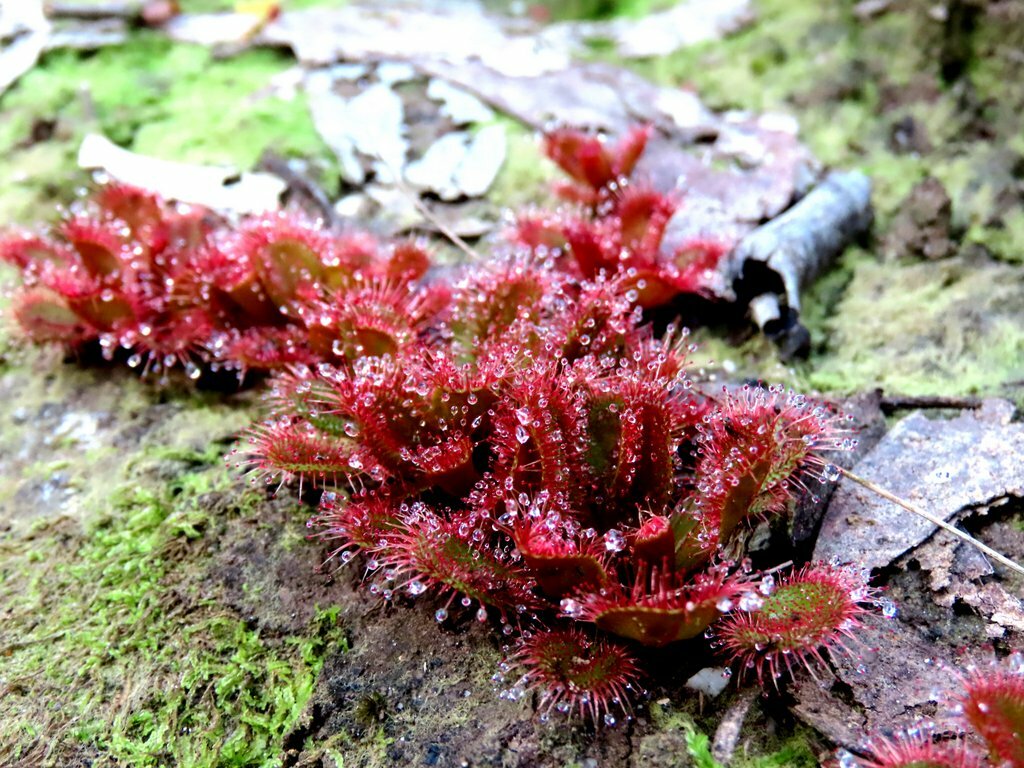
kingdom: Plantae
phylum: Tracheophyta
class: Magnoliopsida
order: Caryophyllales
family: Droseraceae
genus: Drosera
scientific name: Drosera aberrans
